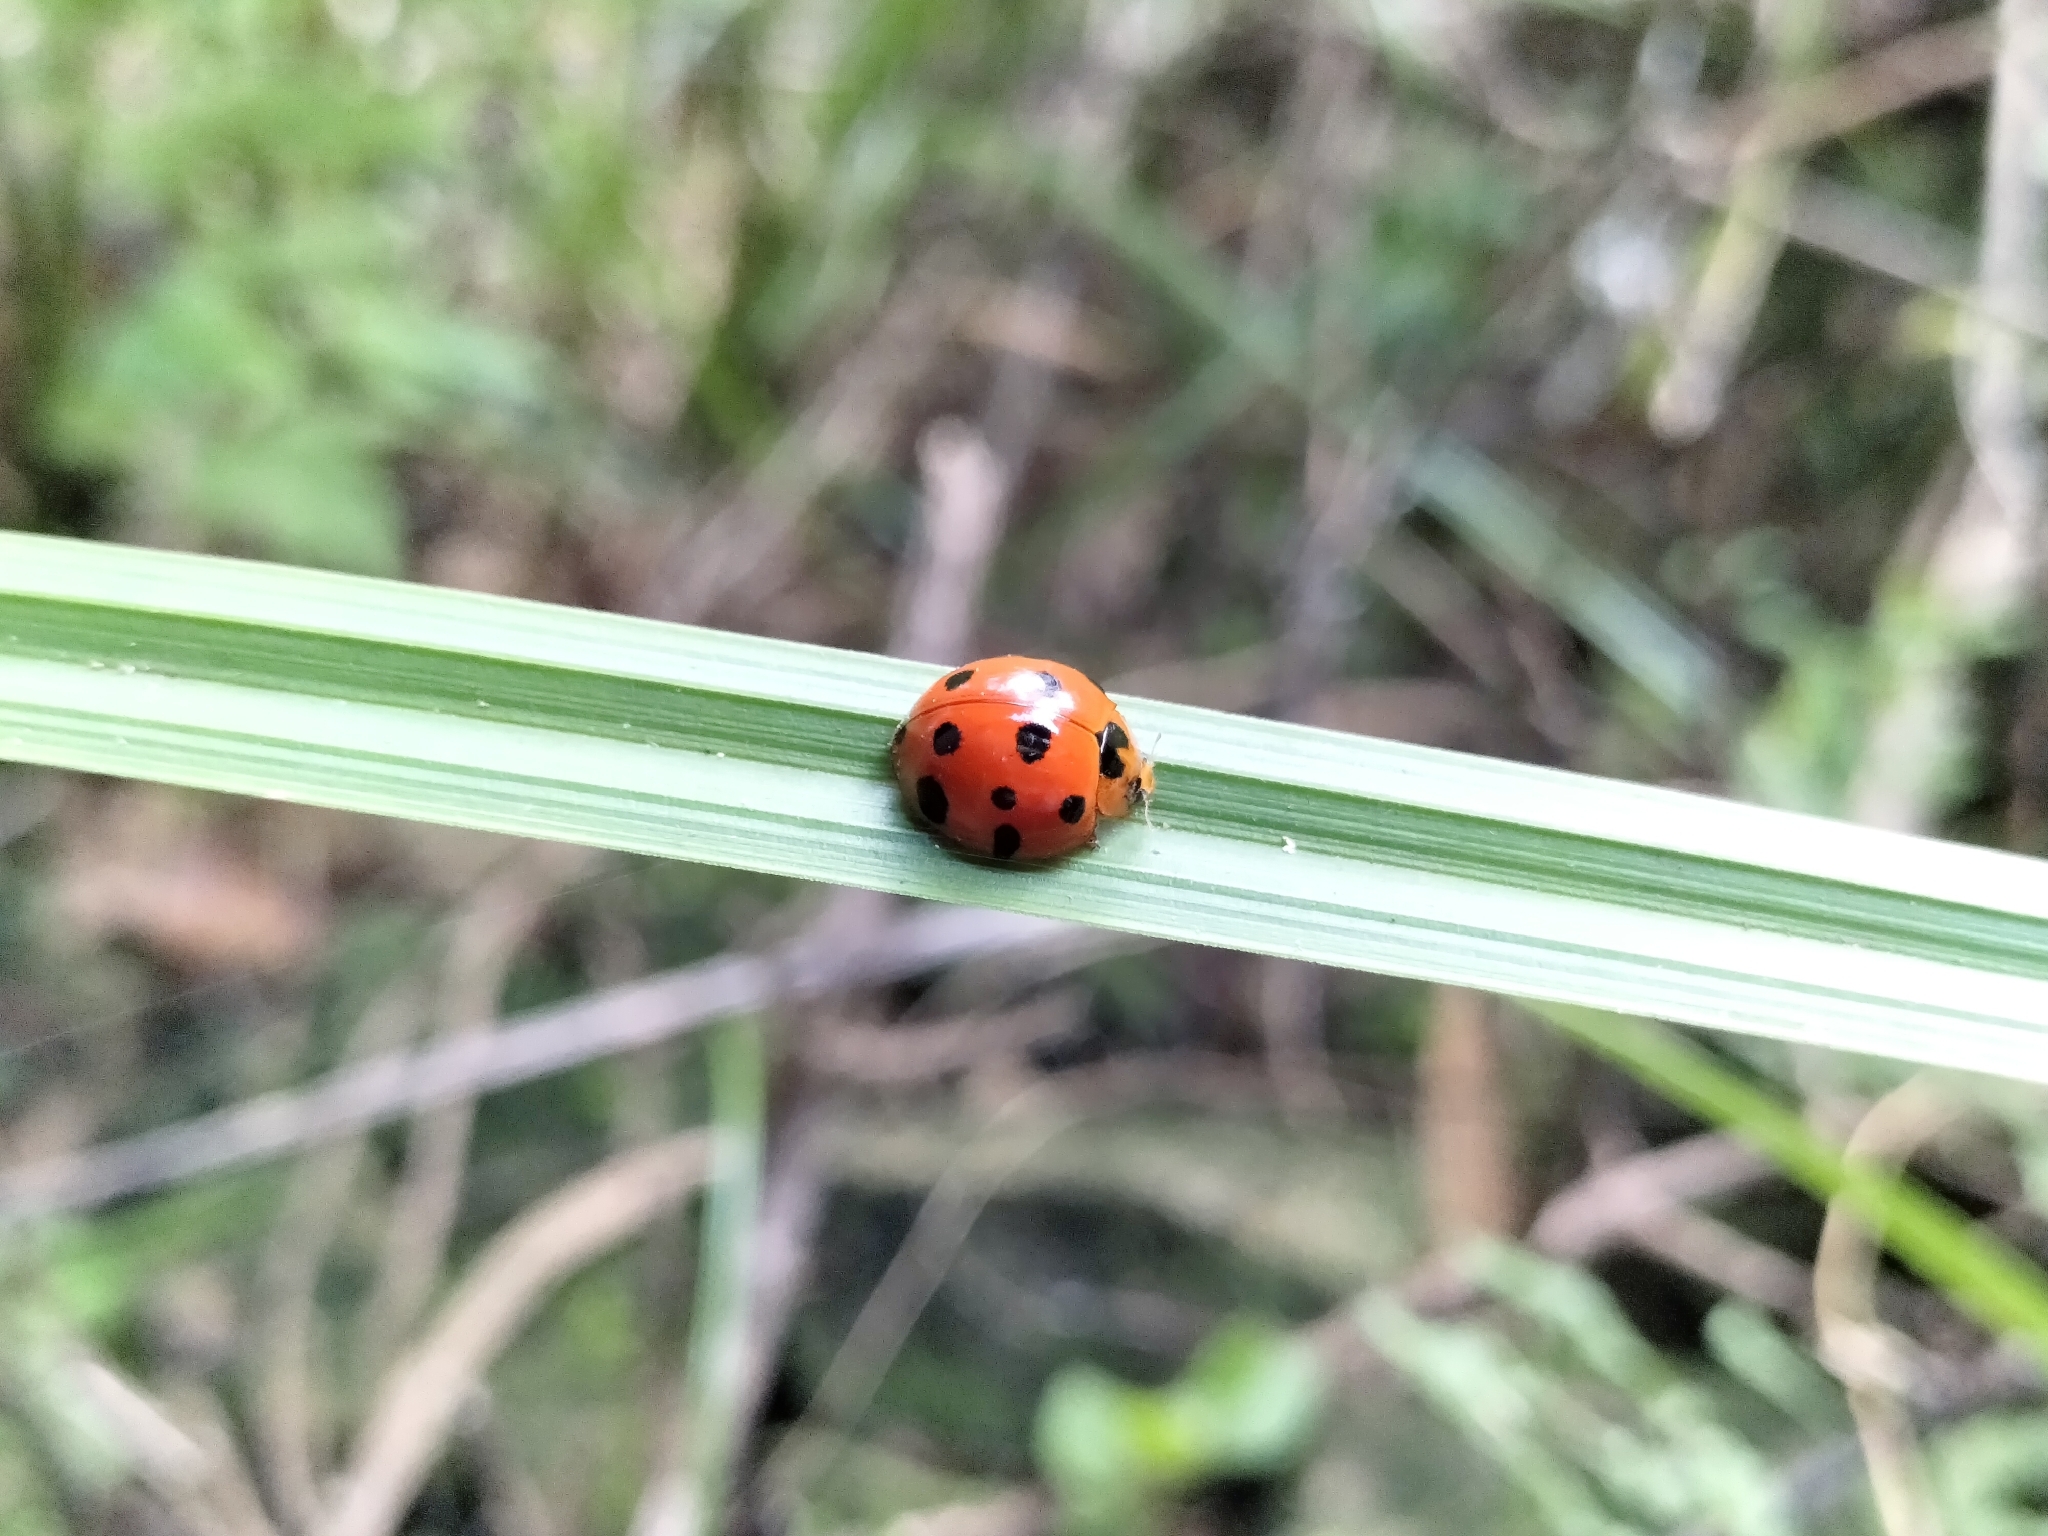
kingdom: Animalia
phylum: Arthropoda
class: Insecta
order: Coleoptera
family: Coccinellidae
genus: Harmonia
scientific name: Harmonia dimidiata
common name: Ladybird beetle
